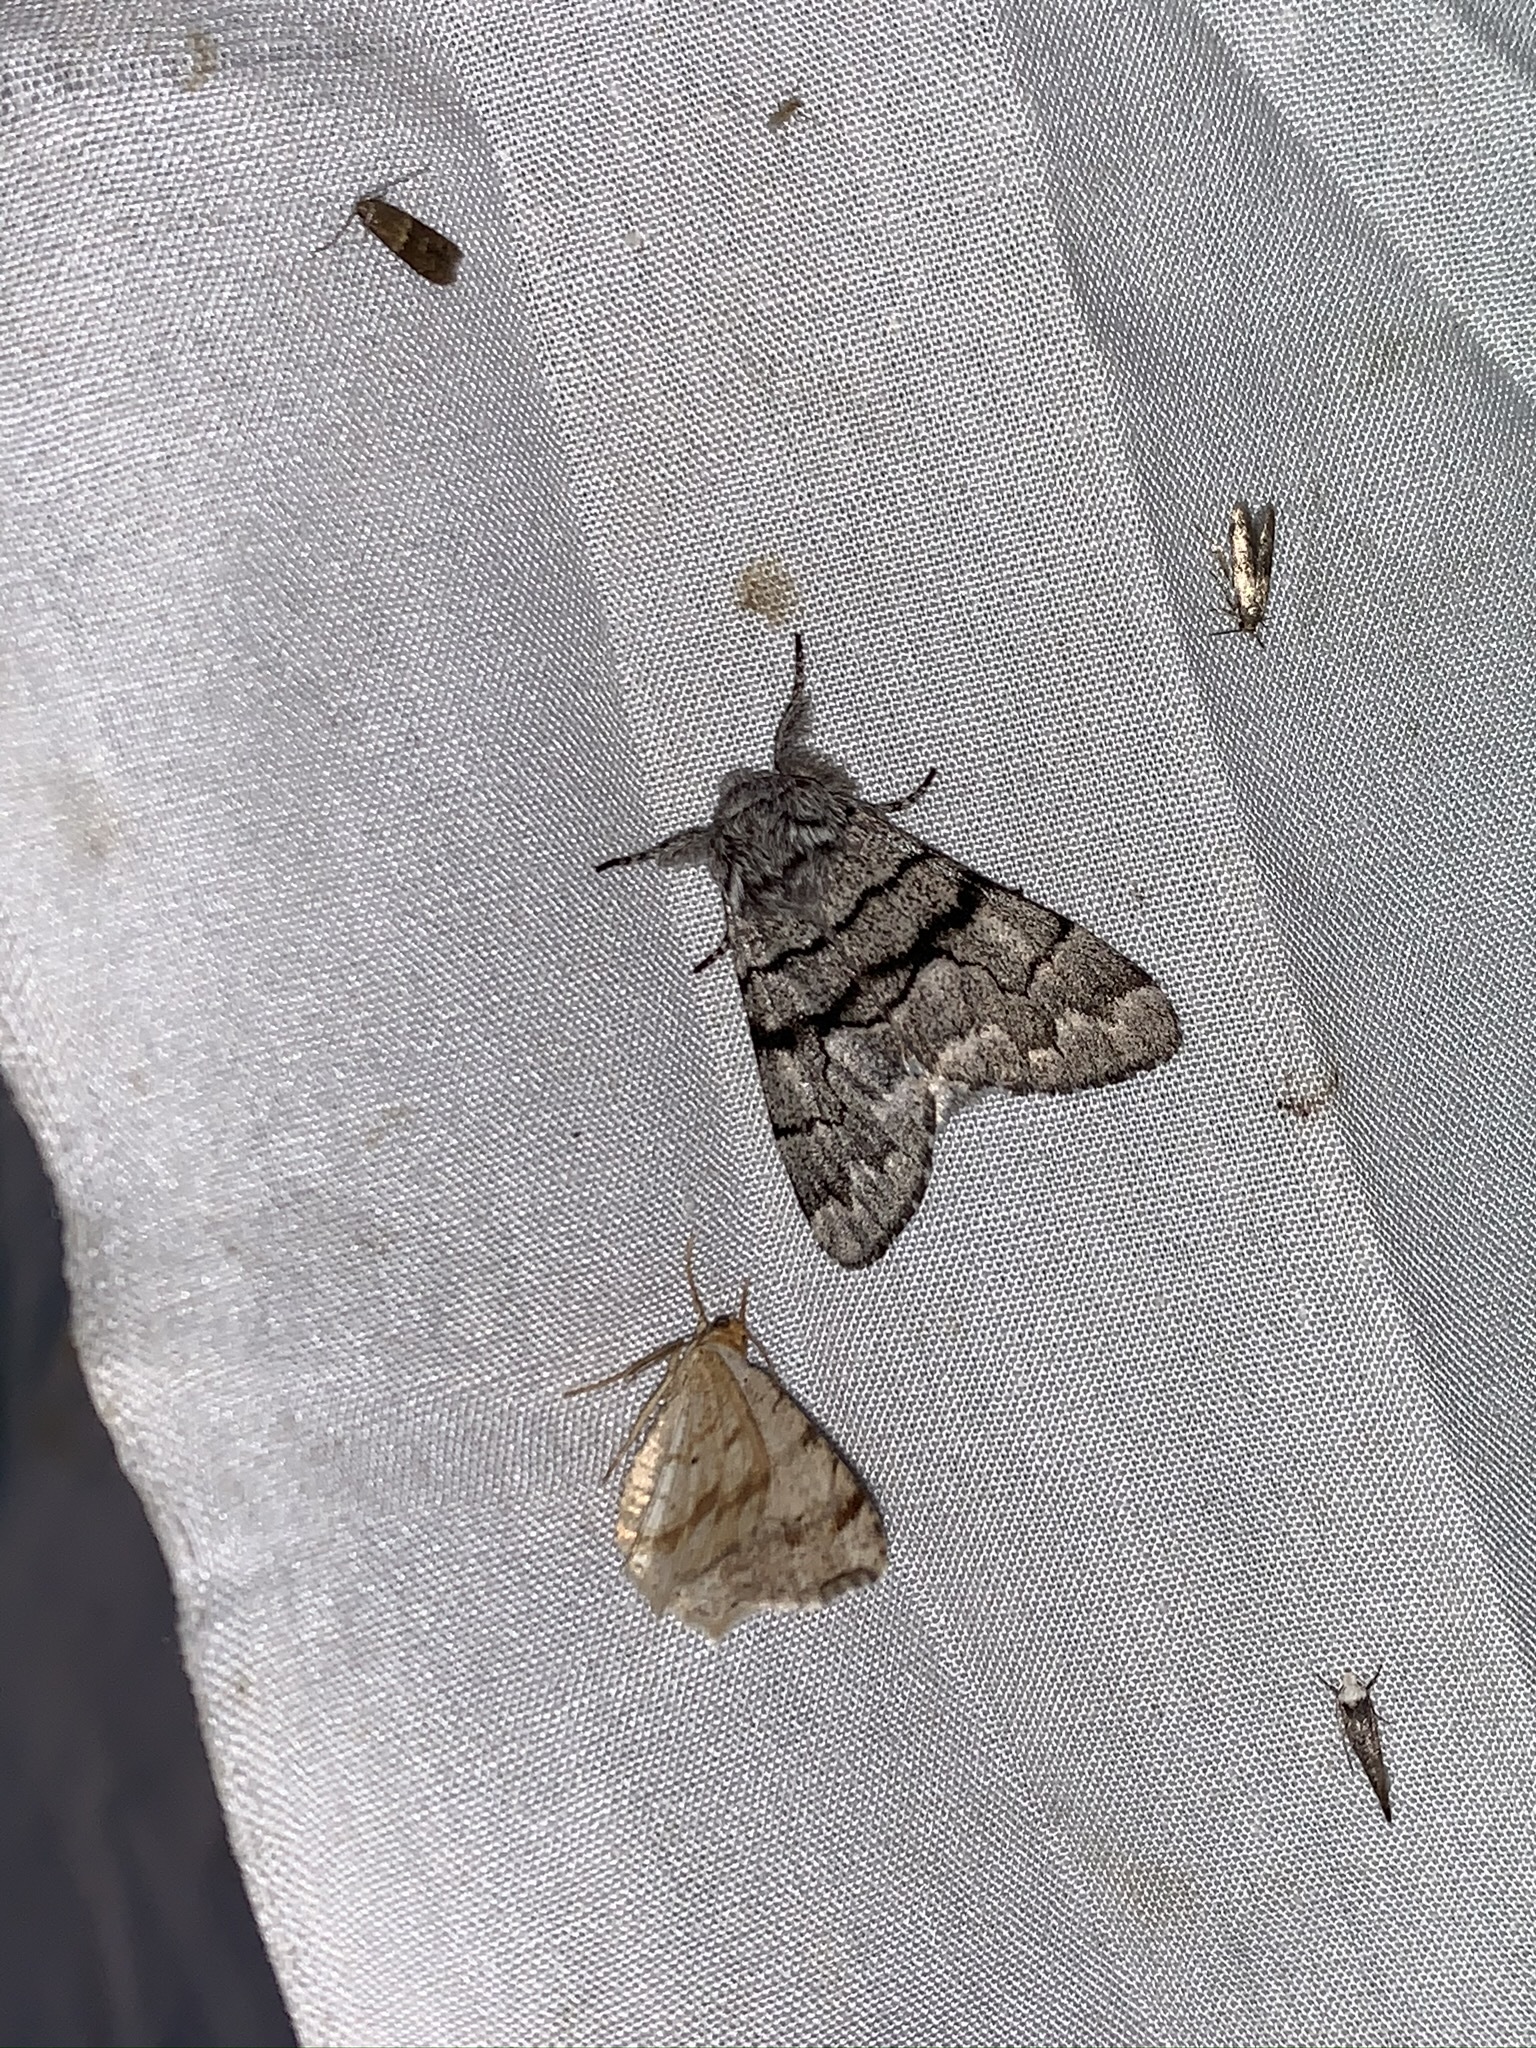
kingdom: Animalia
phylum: Arthropoda
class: Insecta
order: Lepidoptera
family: Noctuidae
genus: Panthea
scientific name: Panthea furcilla
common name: Eastern panthea moth
